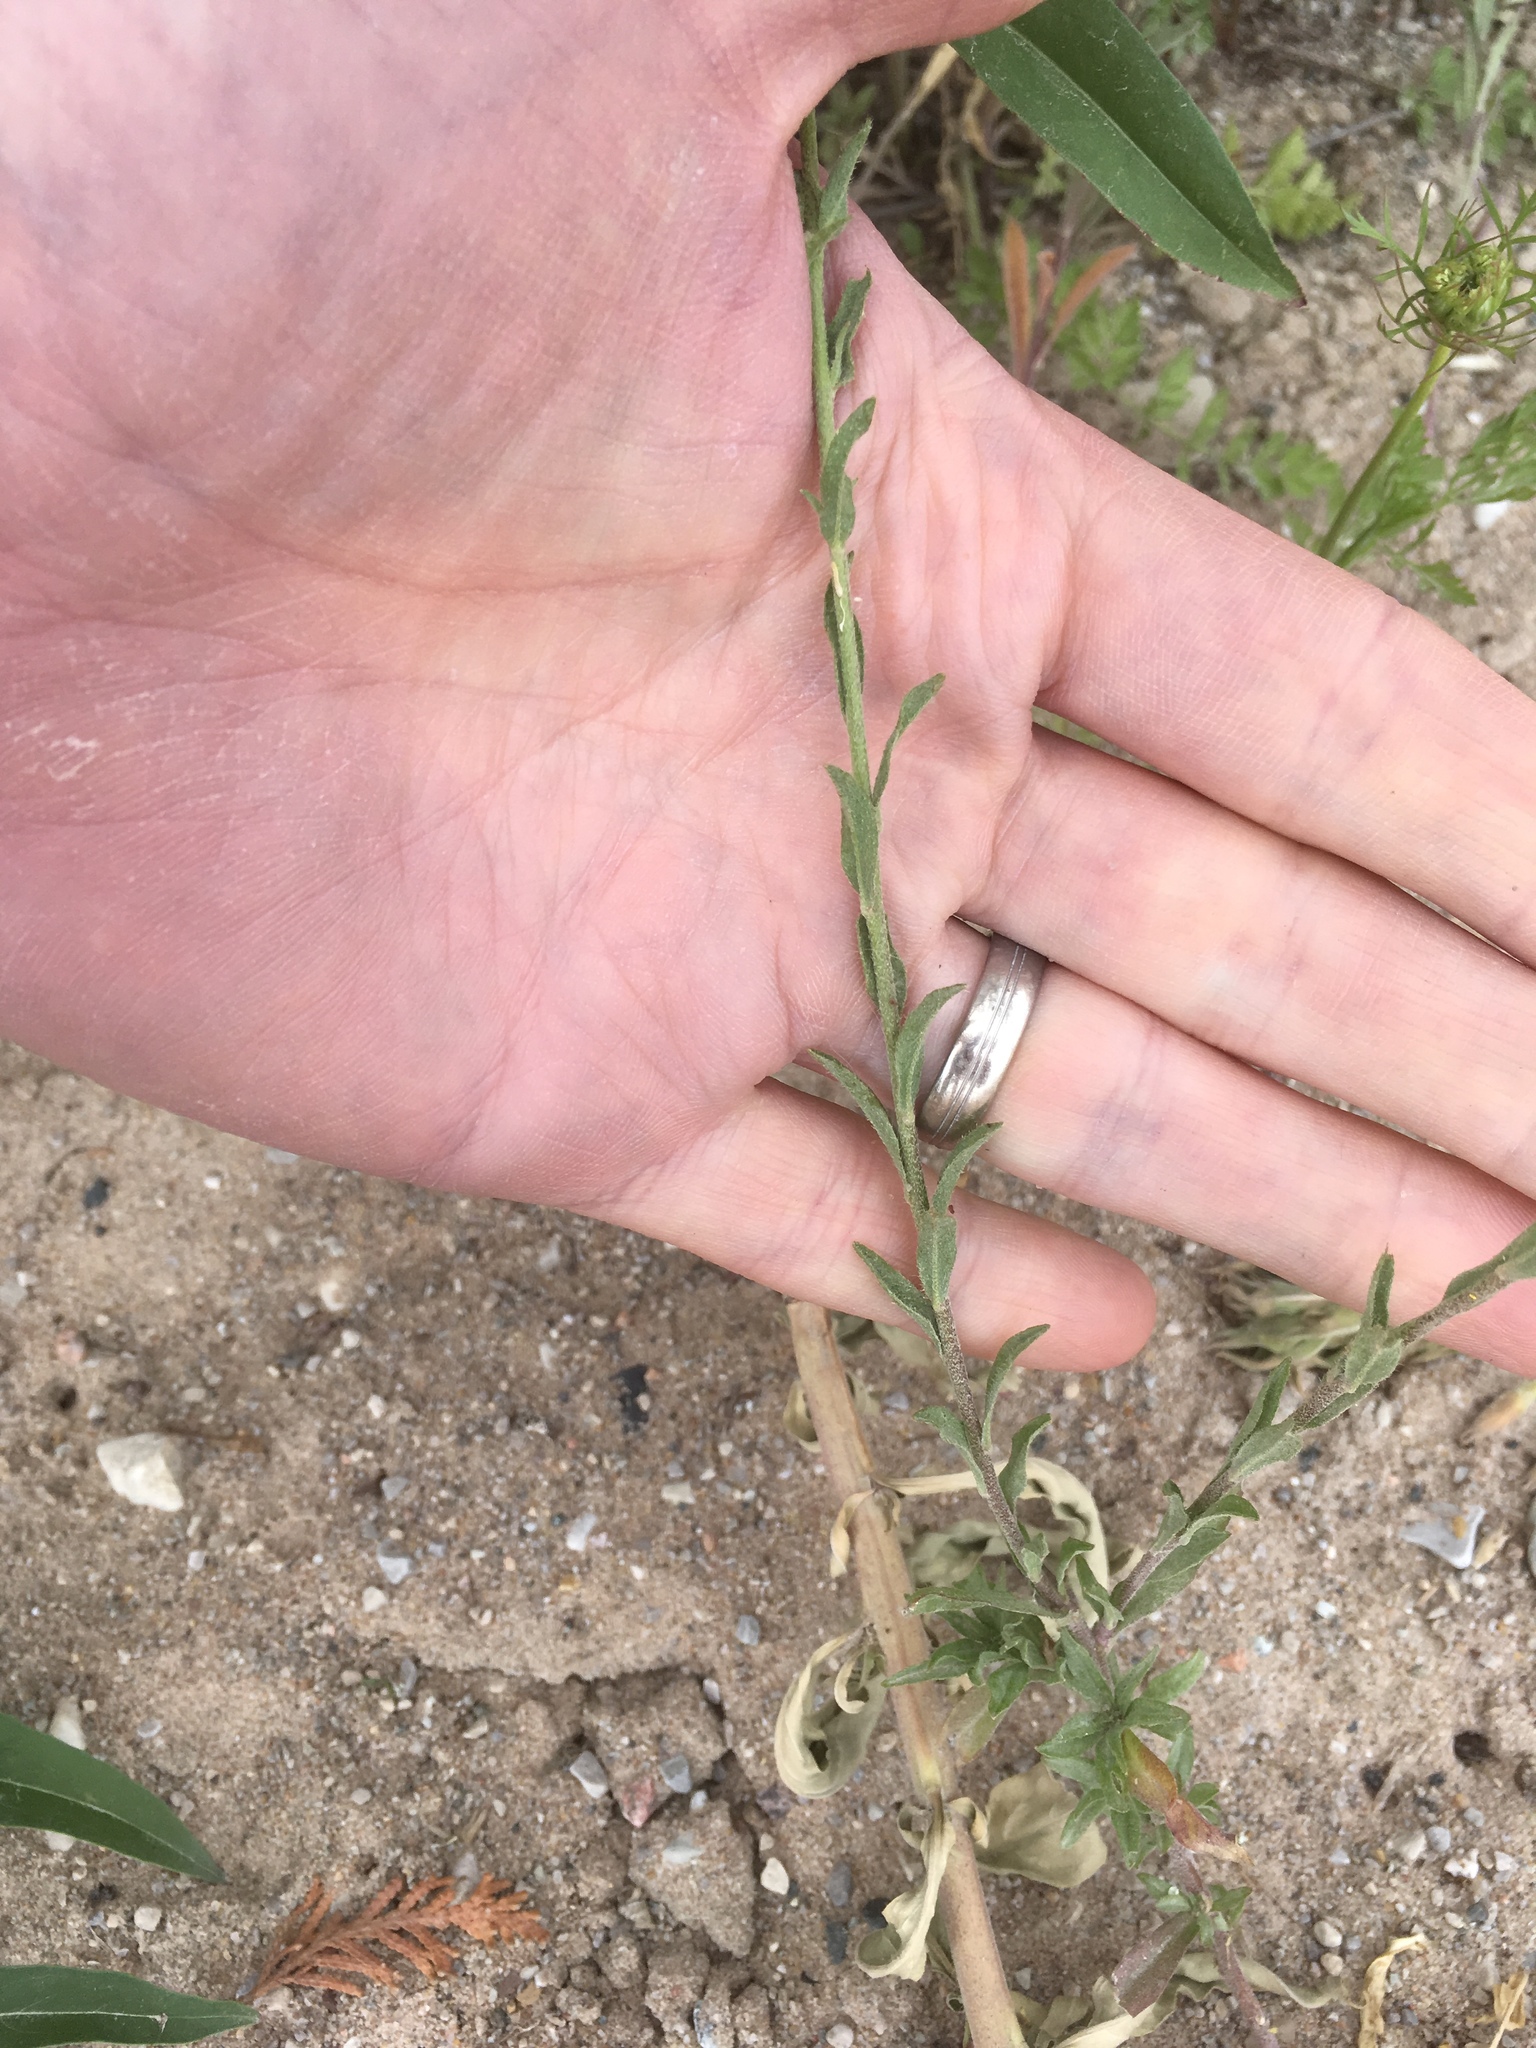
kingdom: Plantae
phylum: Tracheophyta
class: Magnoliopsida
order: Brassicales
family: Brassicaceae
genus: Berteroa
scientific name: Berteroa incana
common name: Hoary alison
